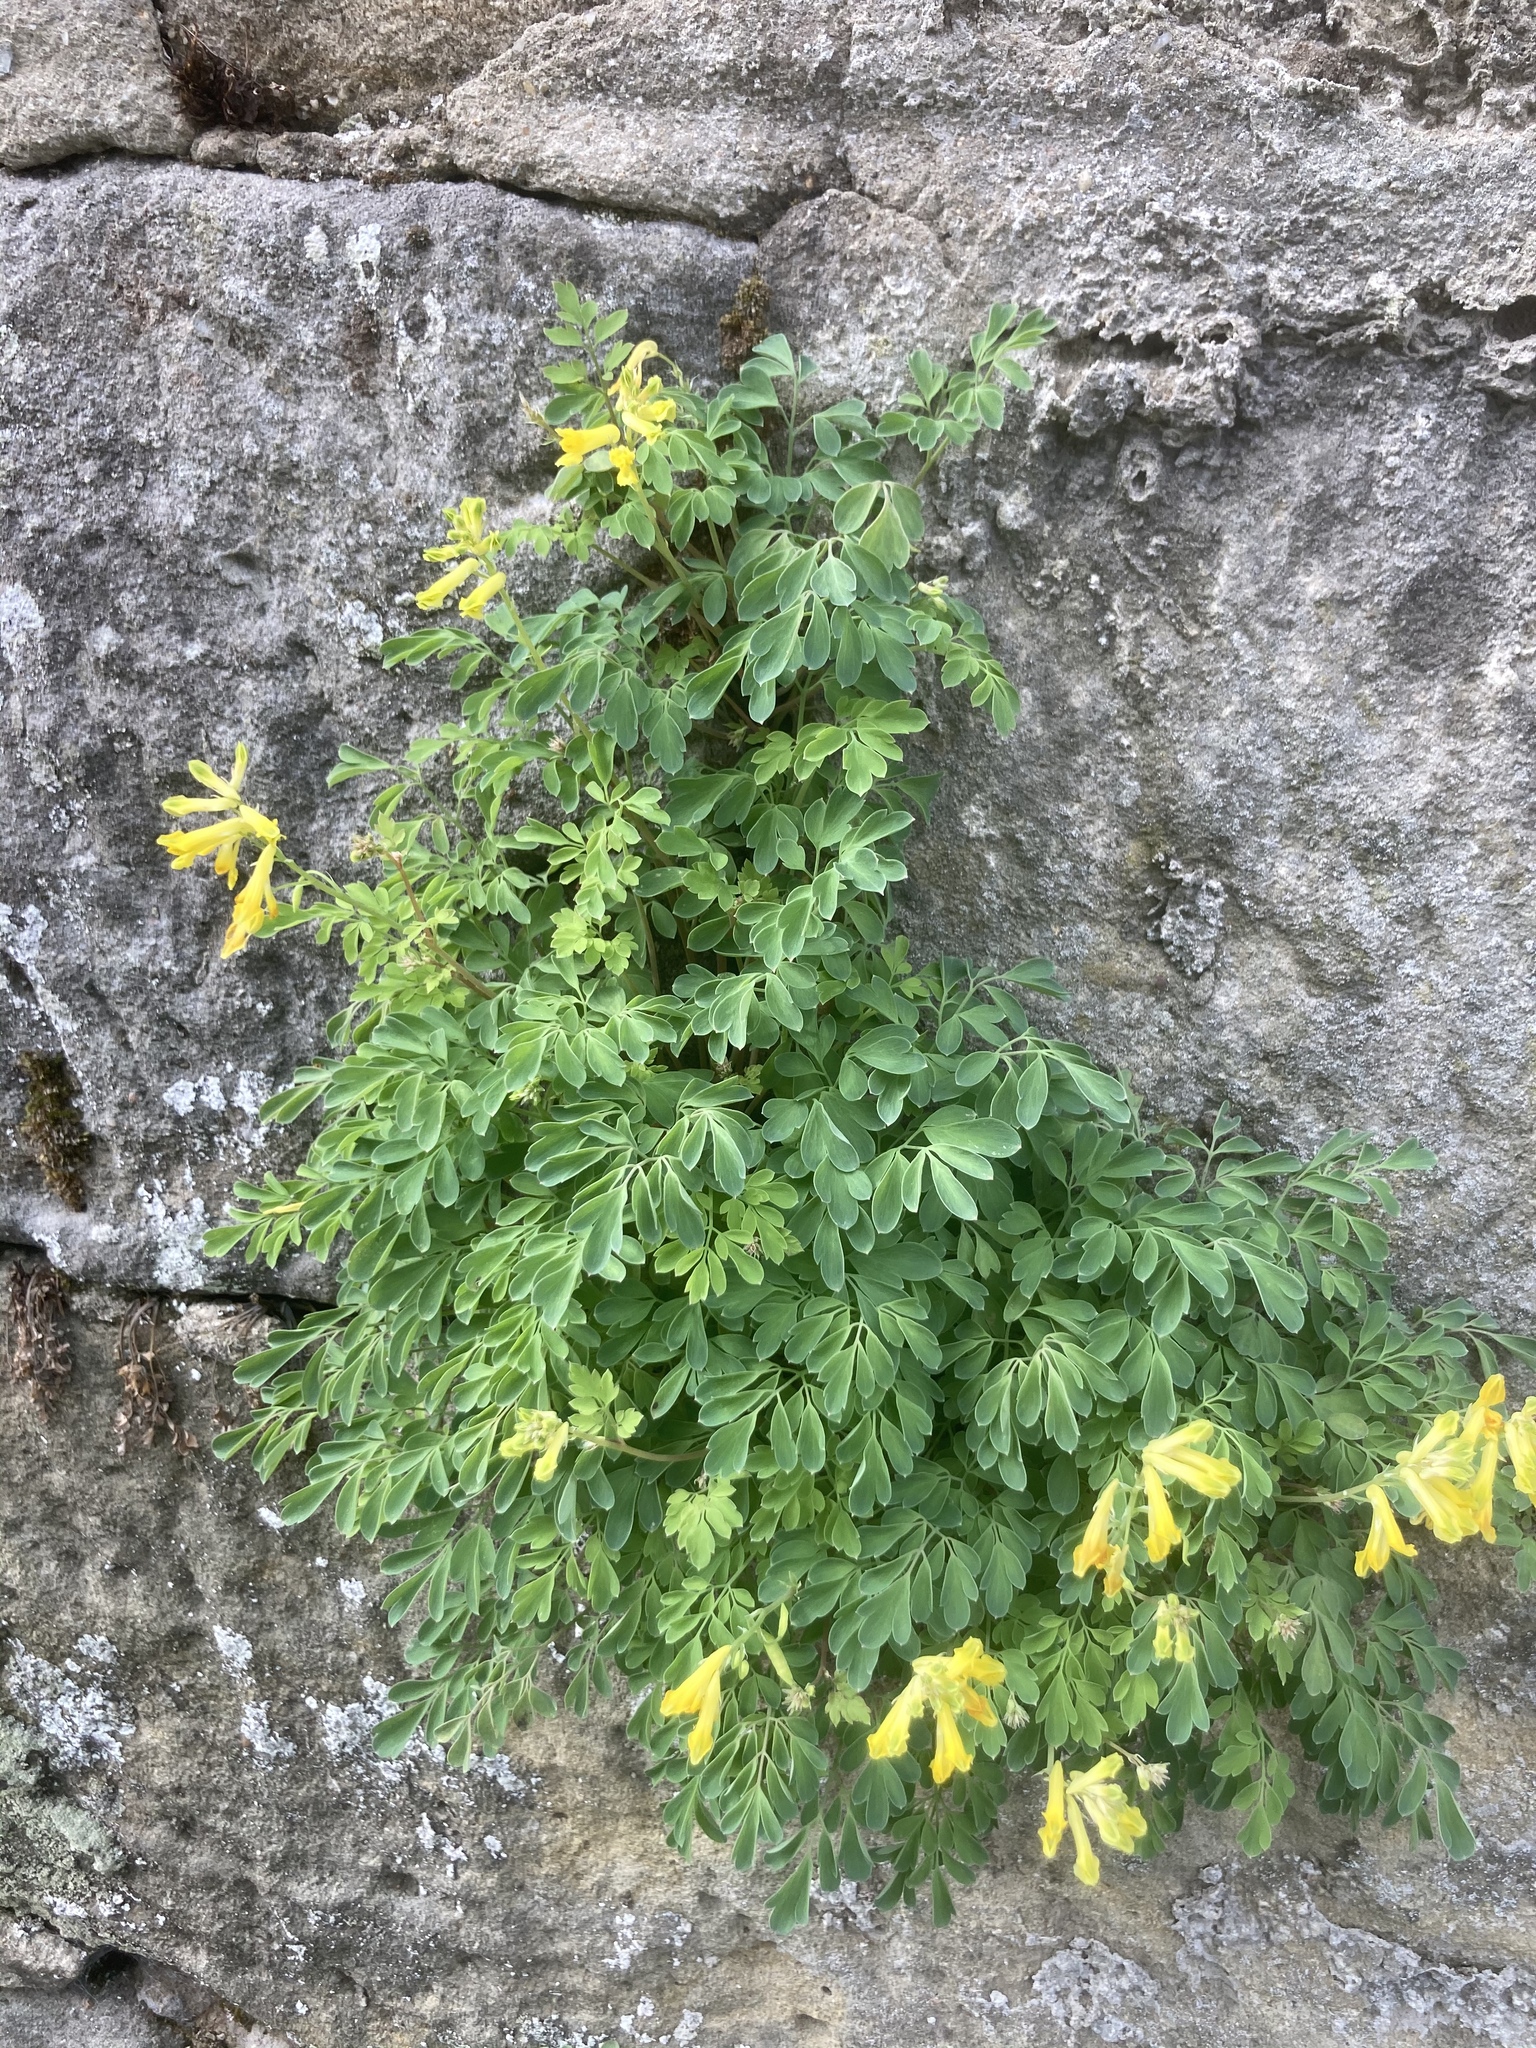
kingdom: Plantae
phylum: Tracheophyta
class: Magnoliopsida
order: Ranunculales
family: Papaveraceae
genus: Pseudofumaria
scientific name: Pseudofumaria lutea
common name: Yellow corydalis
